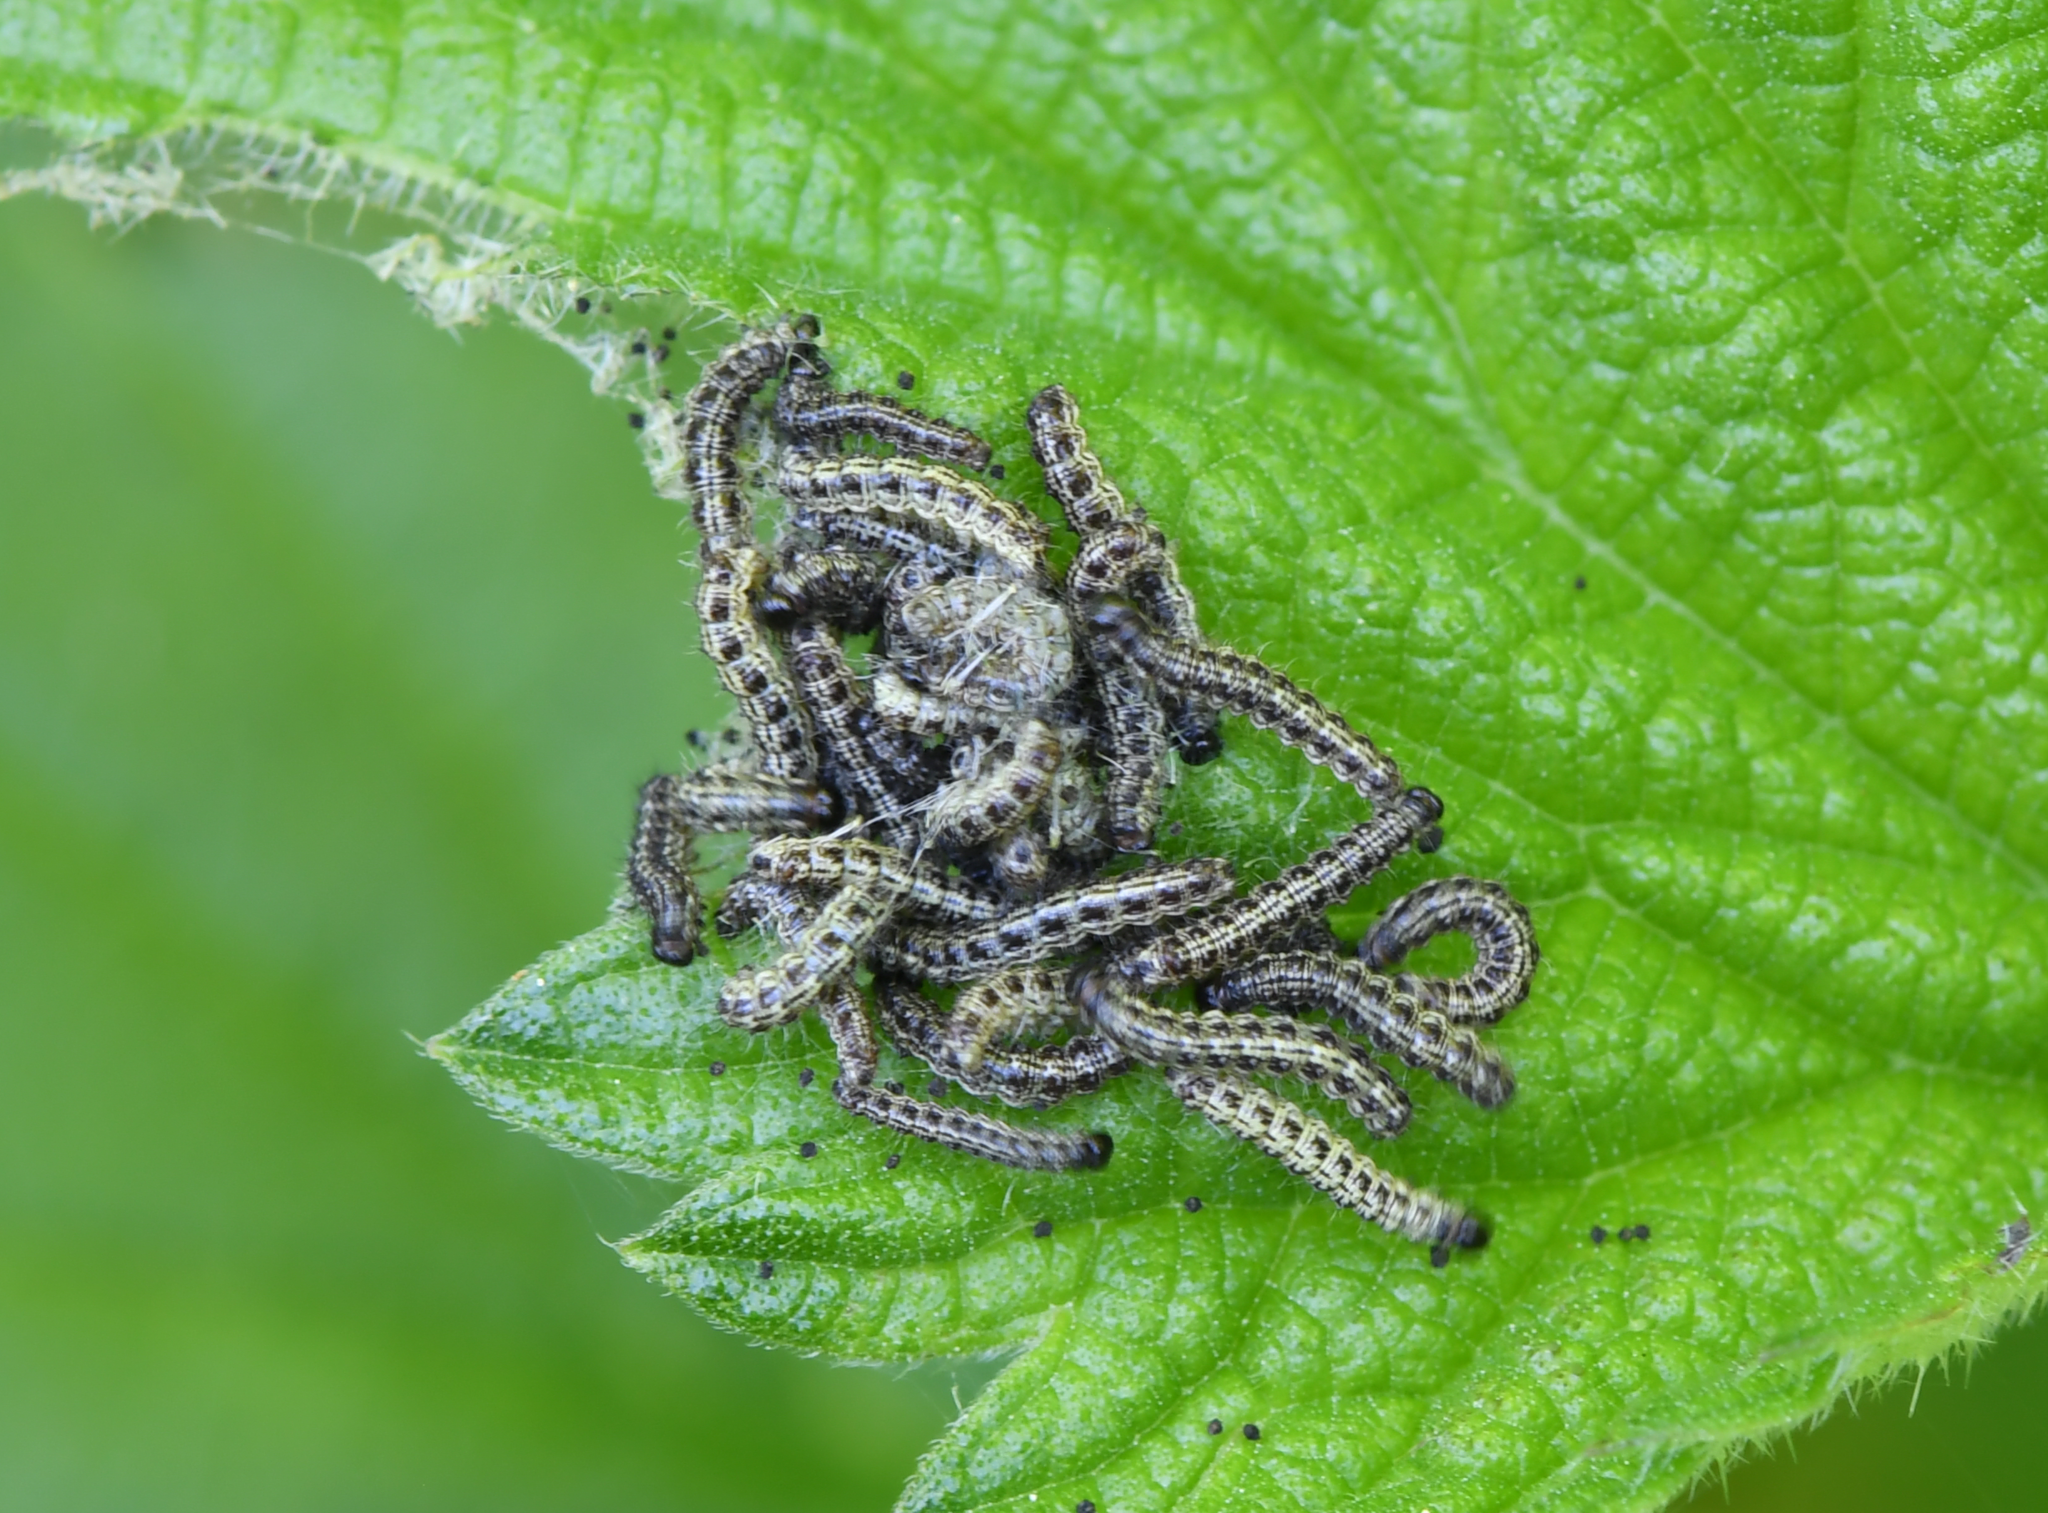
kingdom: Animalia
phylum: Arthropoda
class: Insecta
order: Lepidoptera
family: Nymphalidae
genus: Aglais
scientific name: Aglais urticae
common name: Small tortoiseshell
